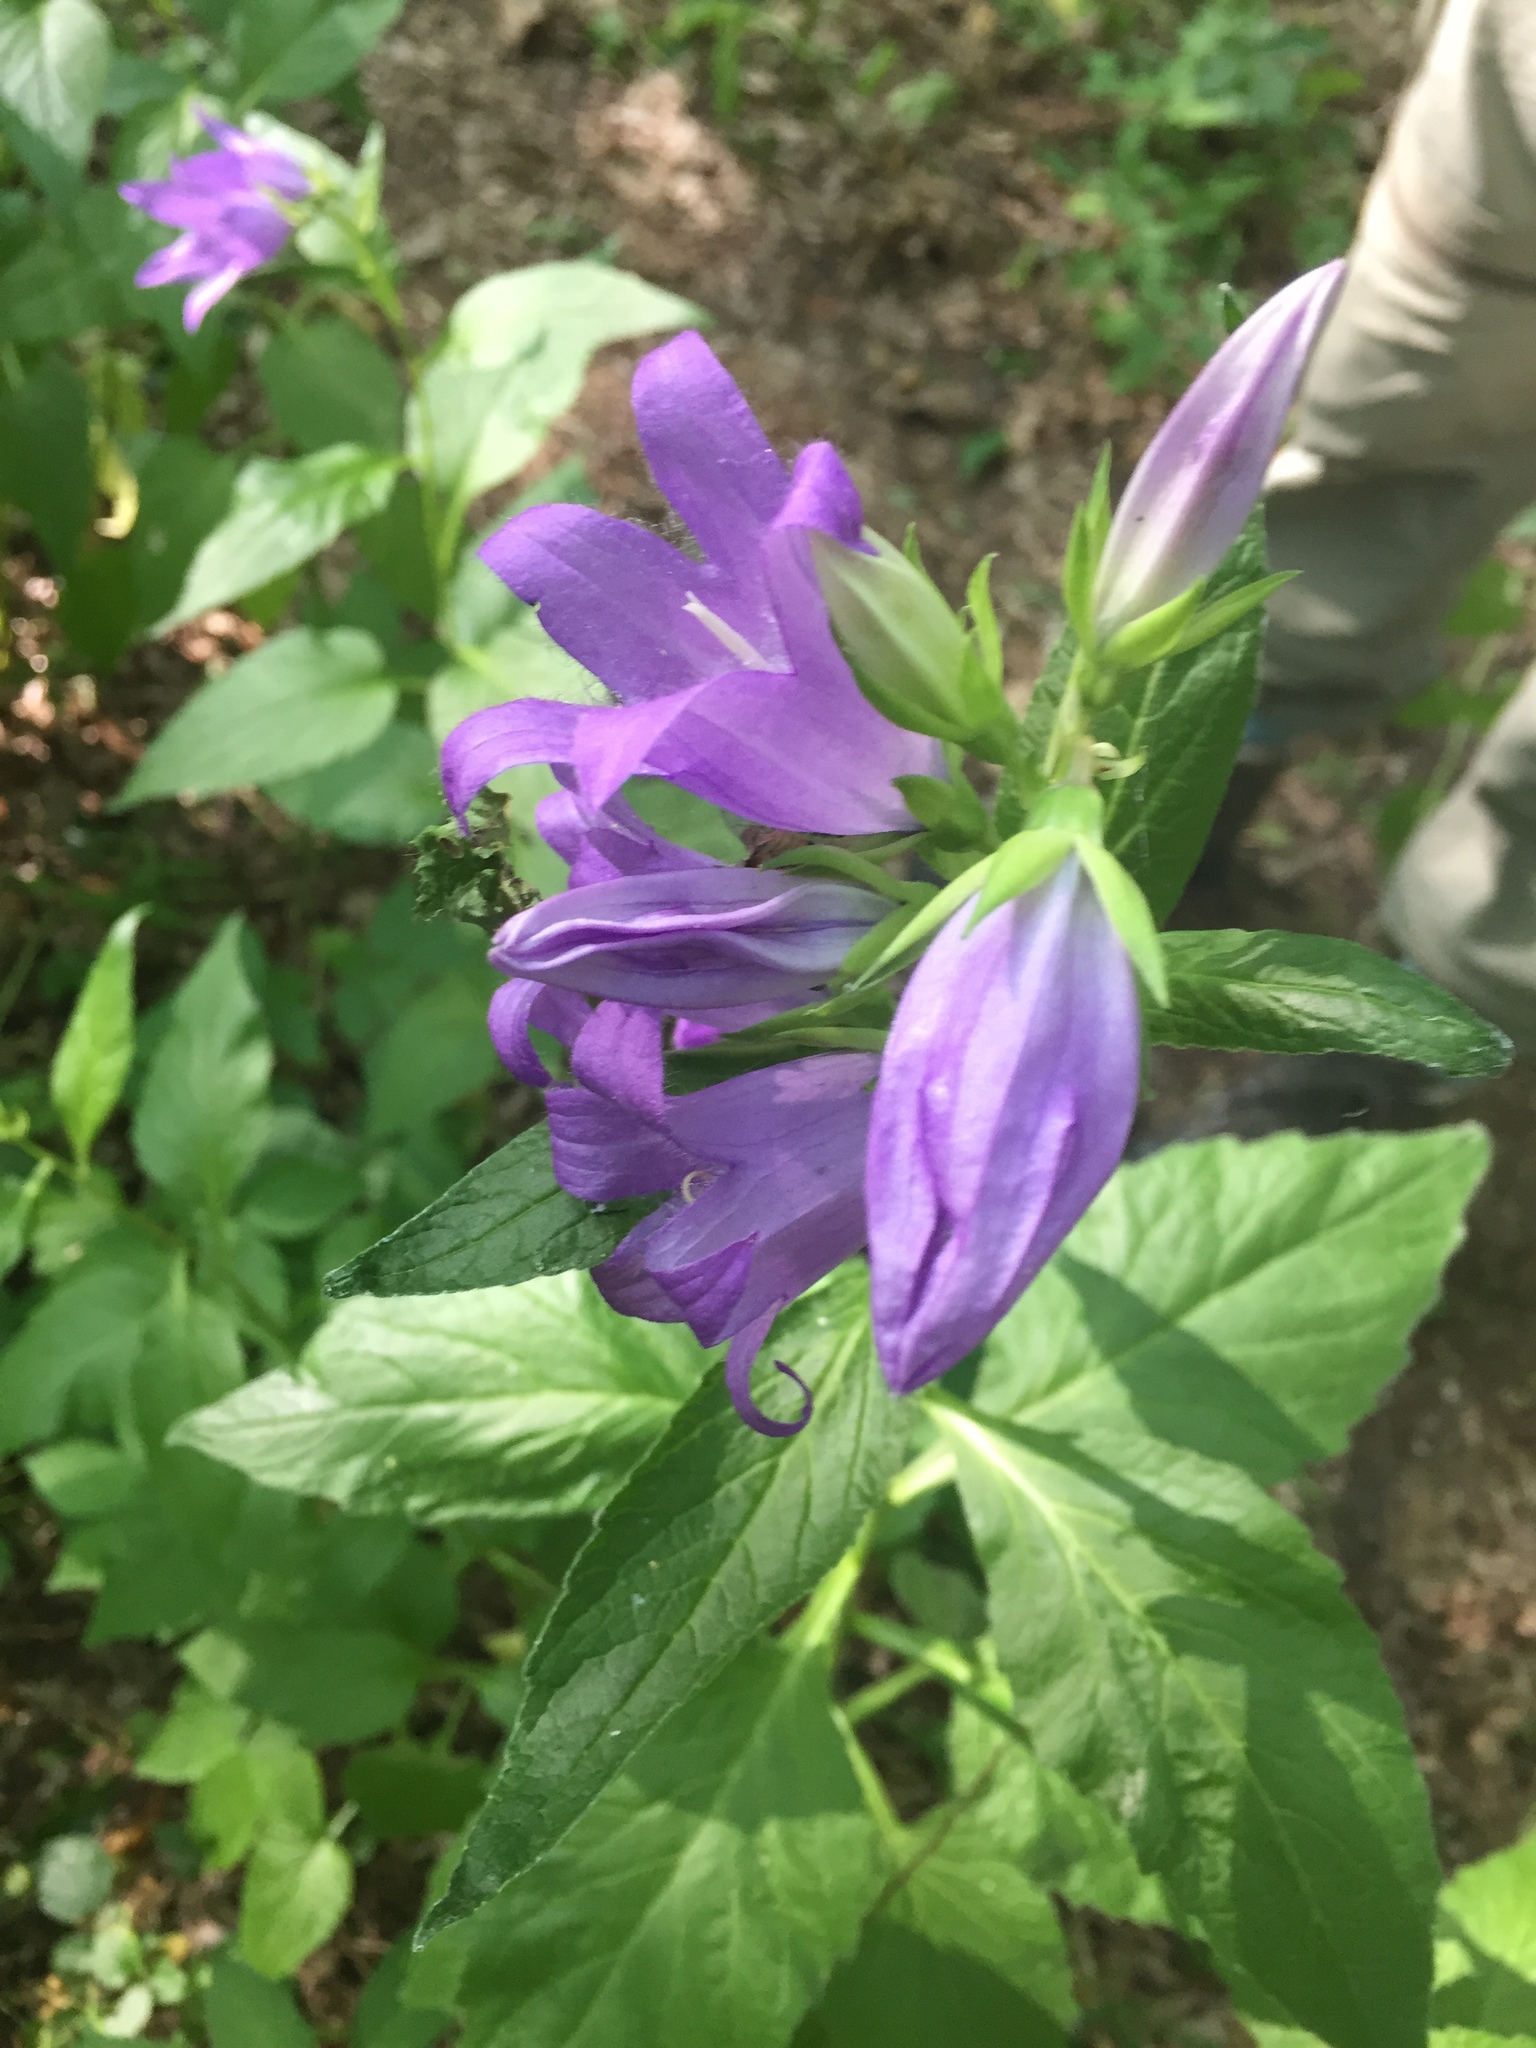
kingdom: Plantae
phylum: Tracheophyta
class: Magnoliopsida
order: Asterales
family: Campanulaceae
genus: Campanula
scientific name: Campanula latifolia
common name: Giant bellflower
